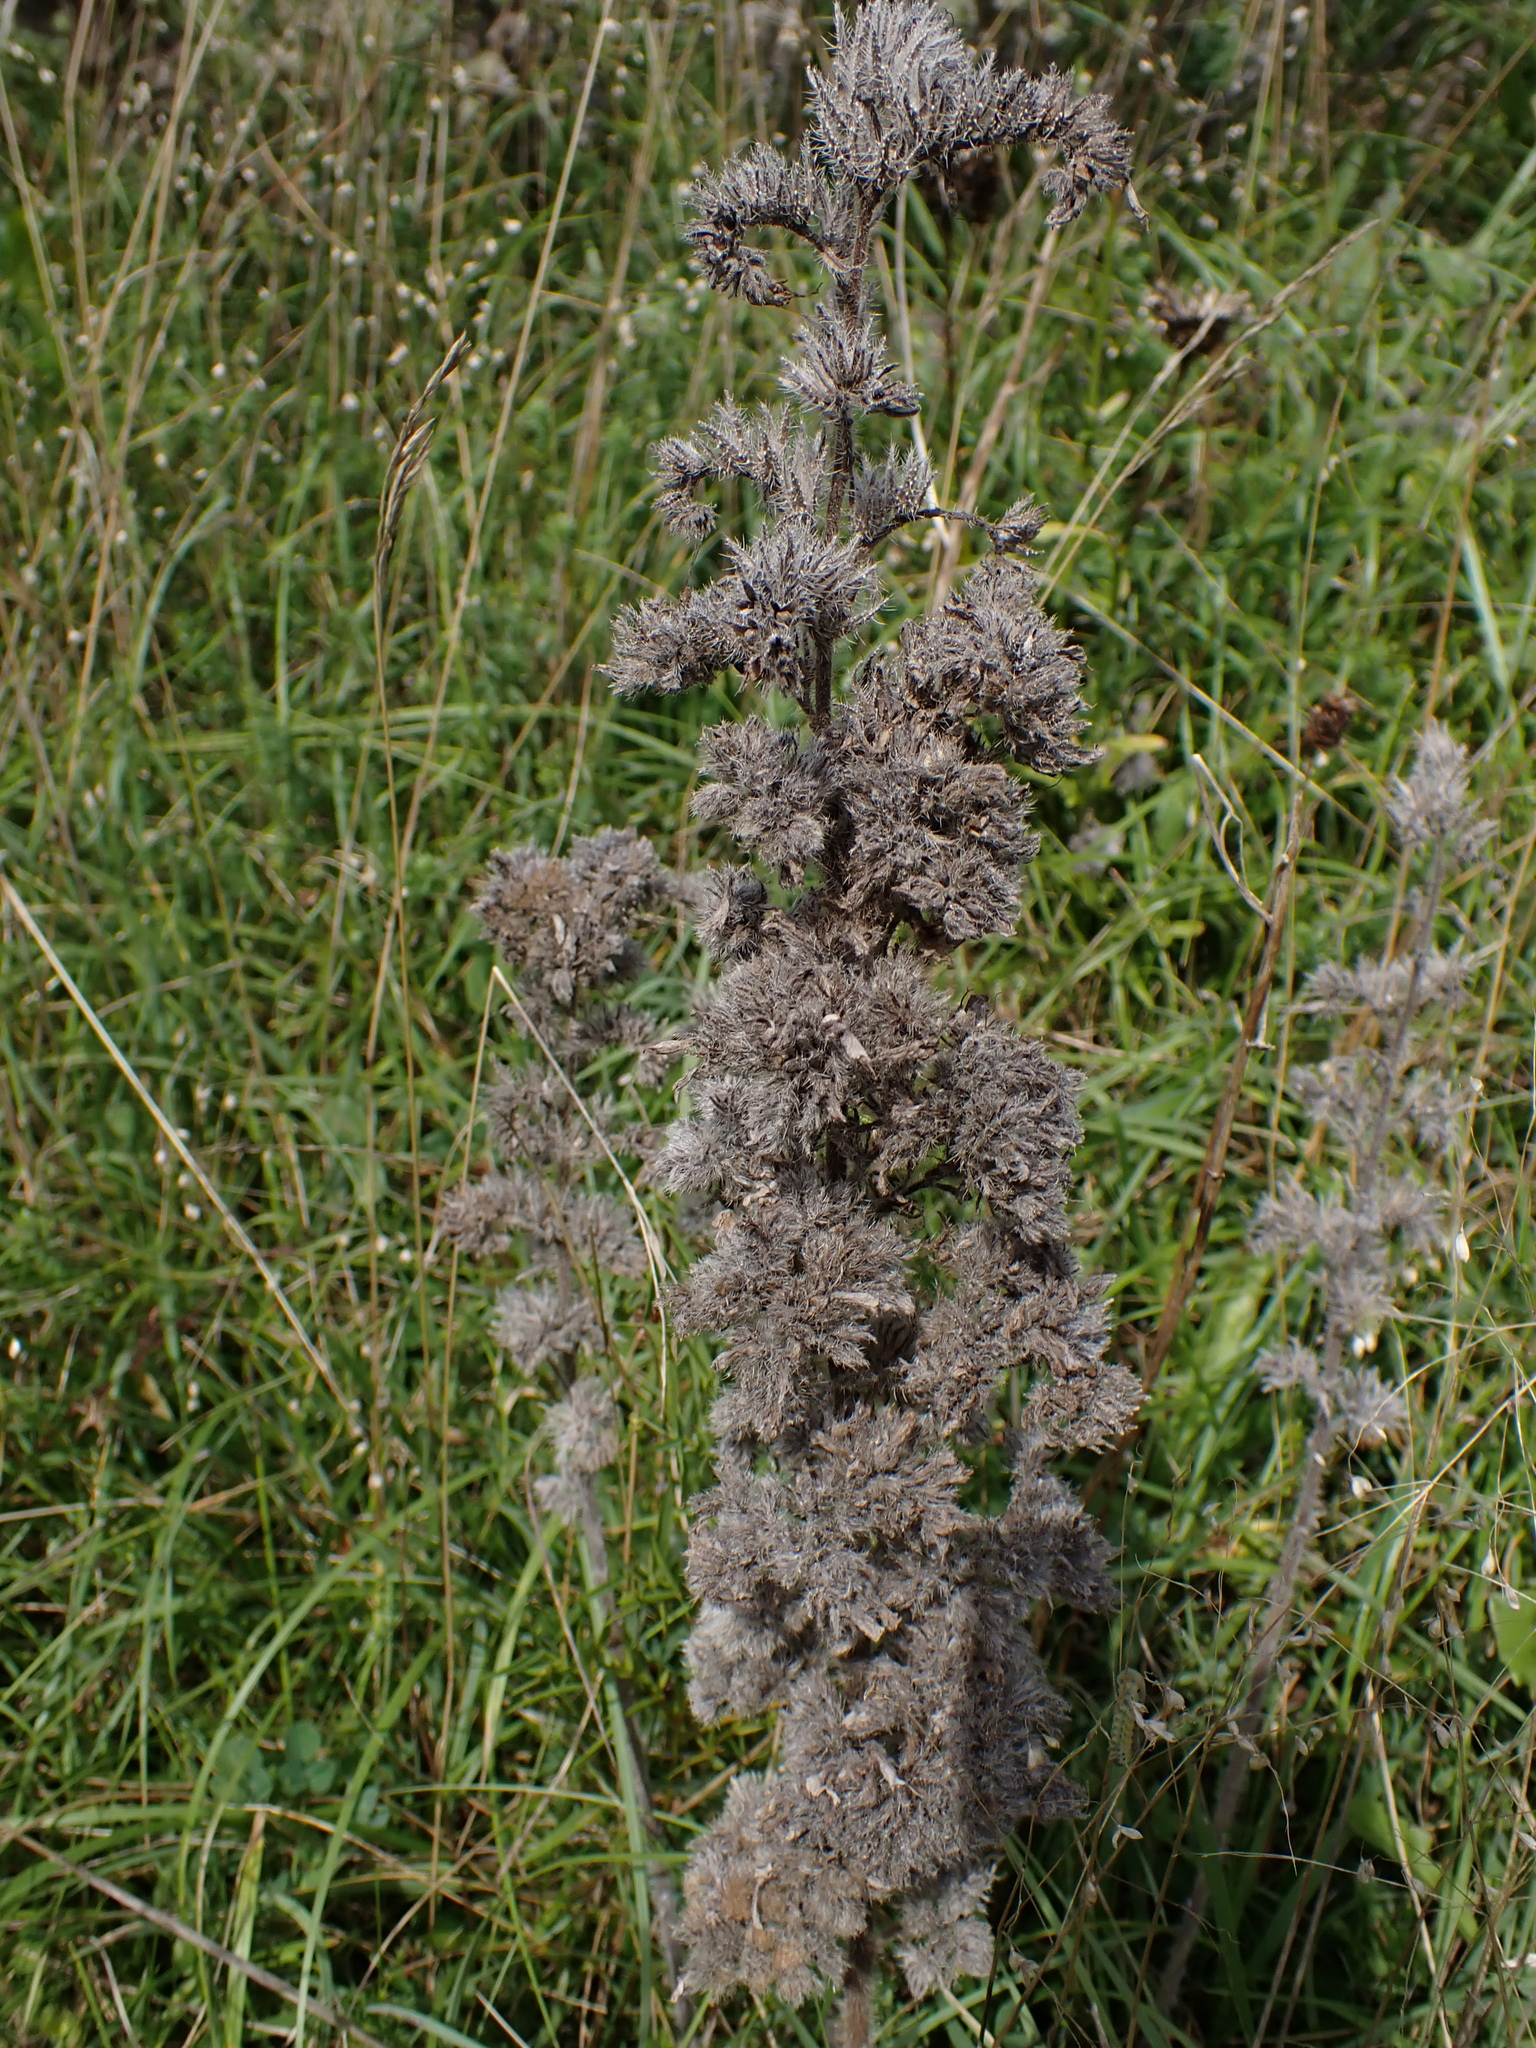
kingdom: Plantae
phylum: Tracheophyta
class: Magnoliopsida
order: Boraginales
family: Boraginaceae
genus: Echium
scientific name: Echium vulgare
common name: Common viper's bugloss
